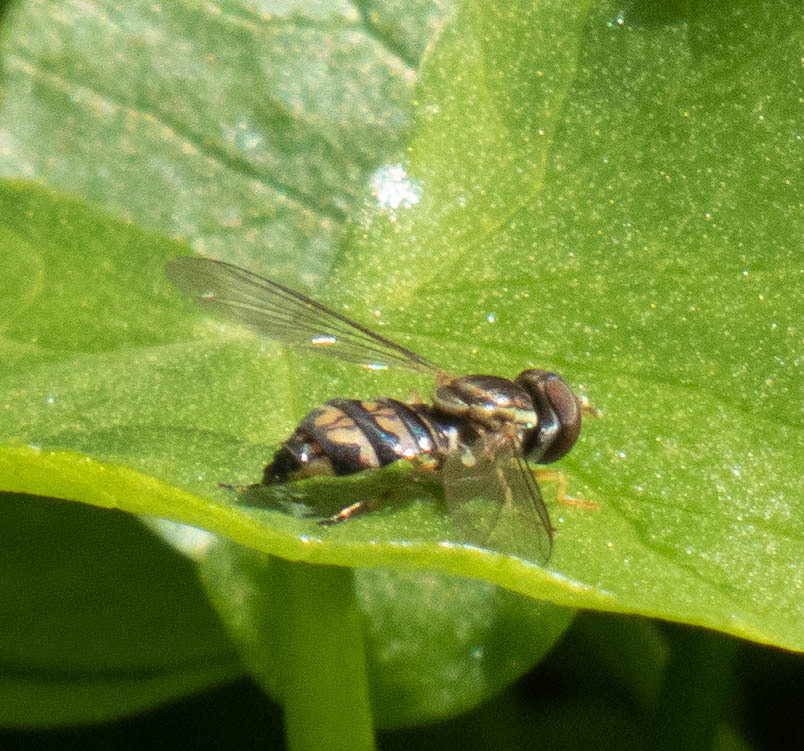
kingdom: Animalia
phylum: Arthropoda
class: Insecta
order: Diptera
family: Syrphidae
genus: Toxomerus
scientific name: Toxomerus geminatus
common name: Eastern calligrapher
